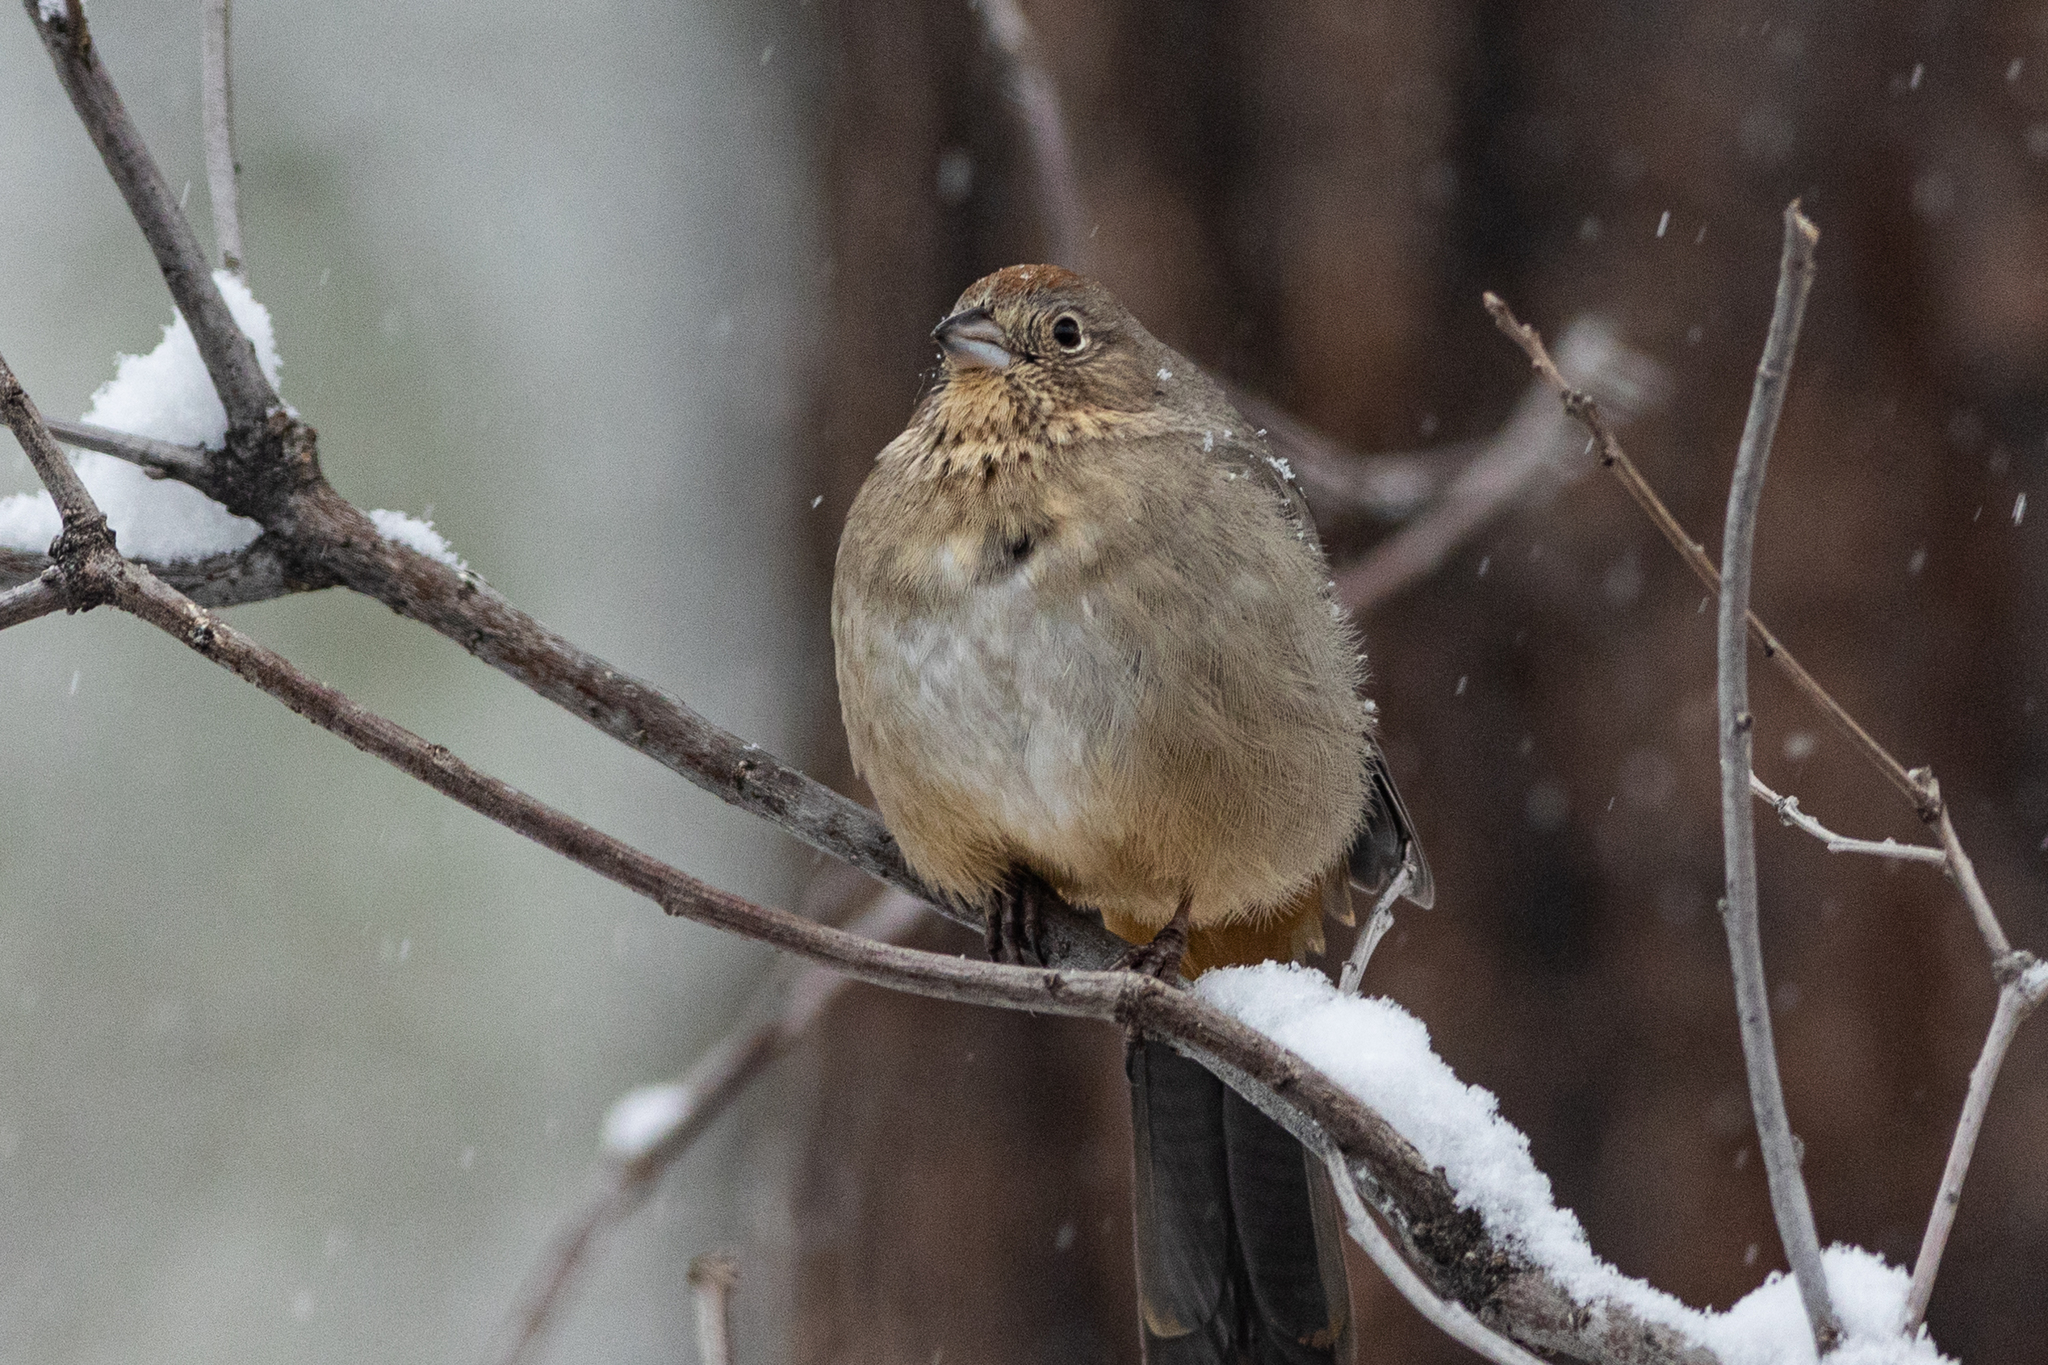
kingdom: Animalia
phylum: Chordata
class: Aves
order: Passeriformes
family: Passerellidae
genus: Melozone
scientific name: Melozone fusca
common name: Canyon towhee
